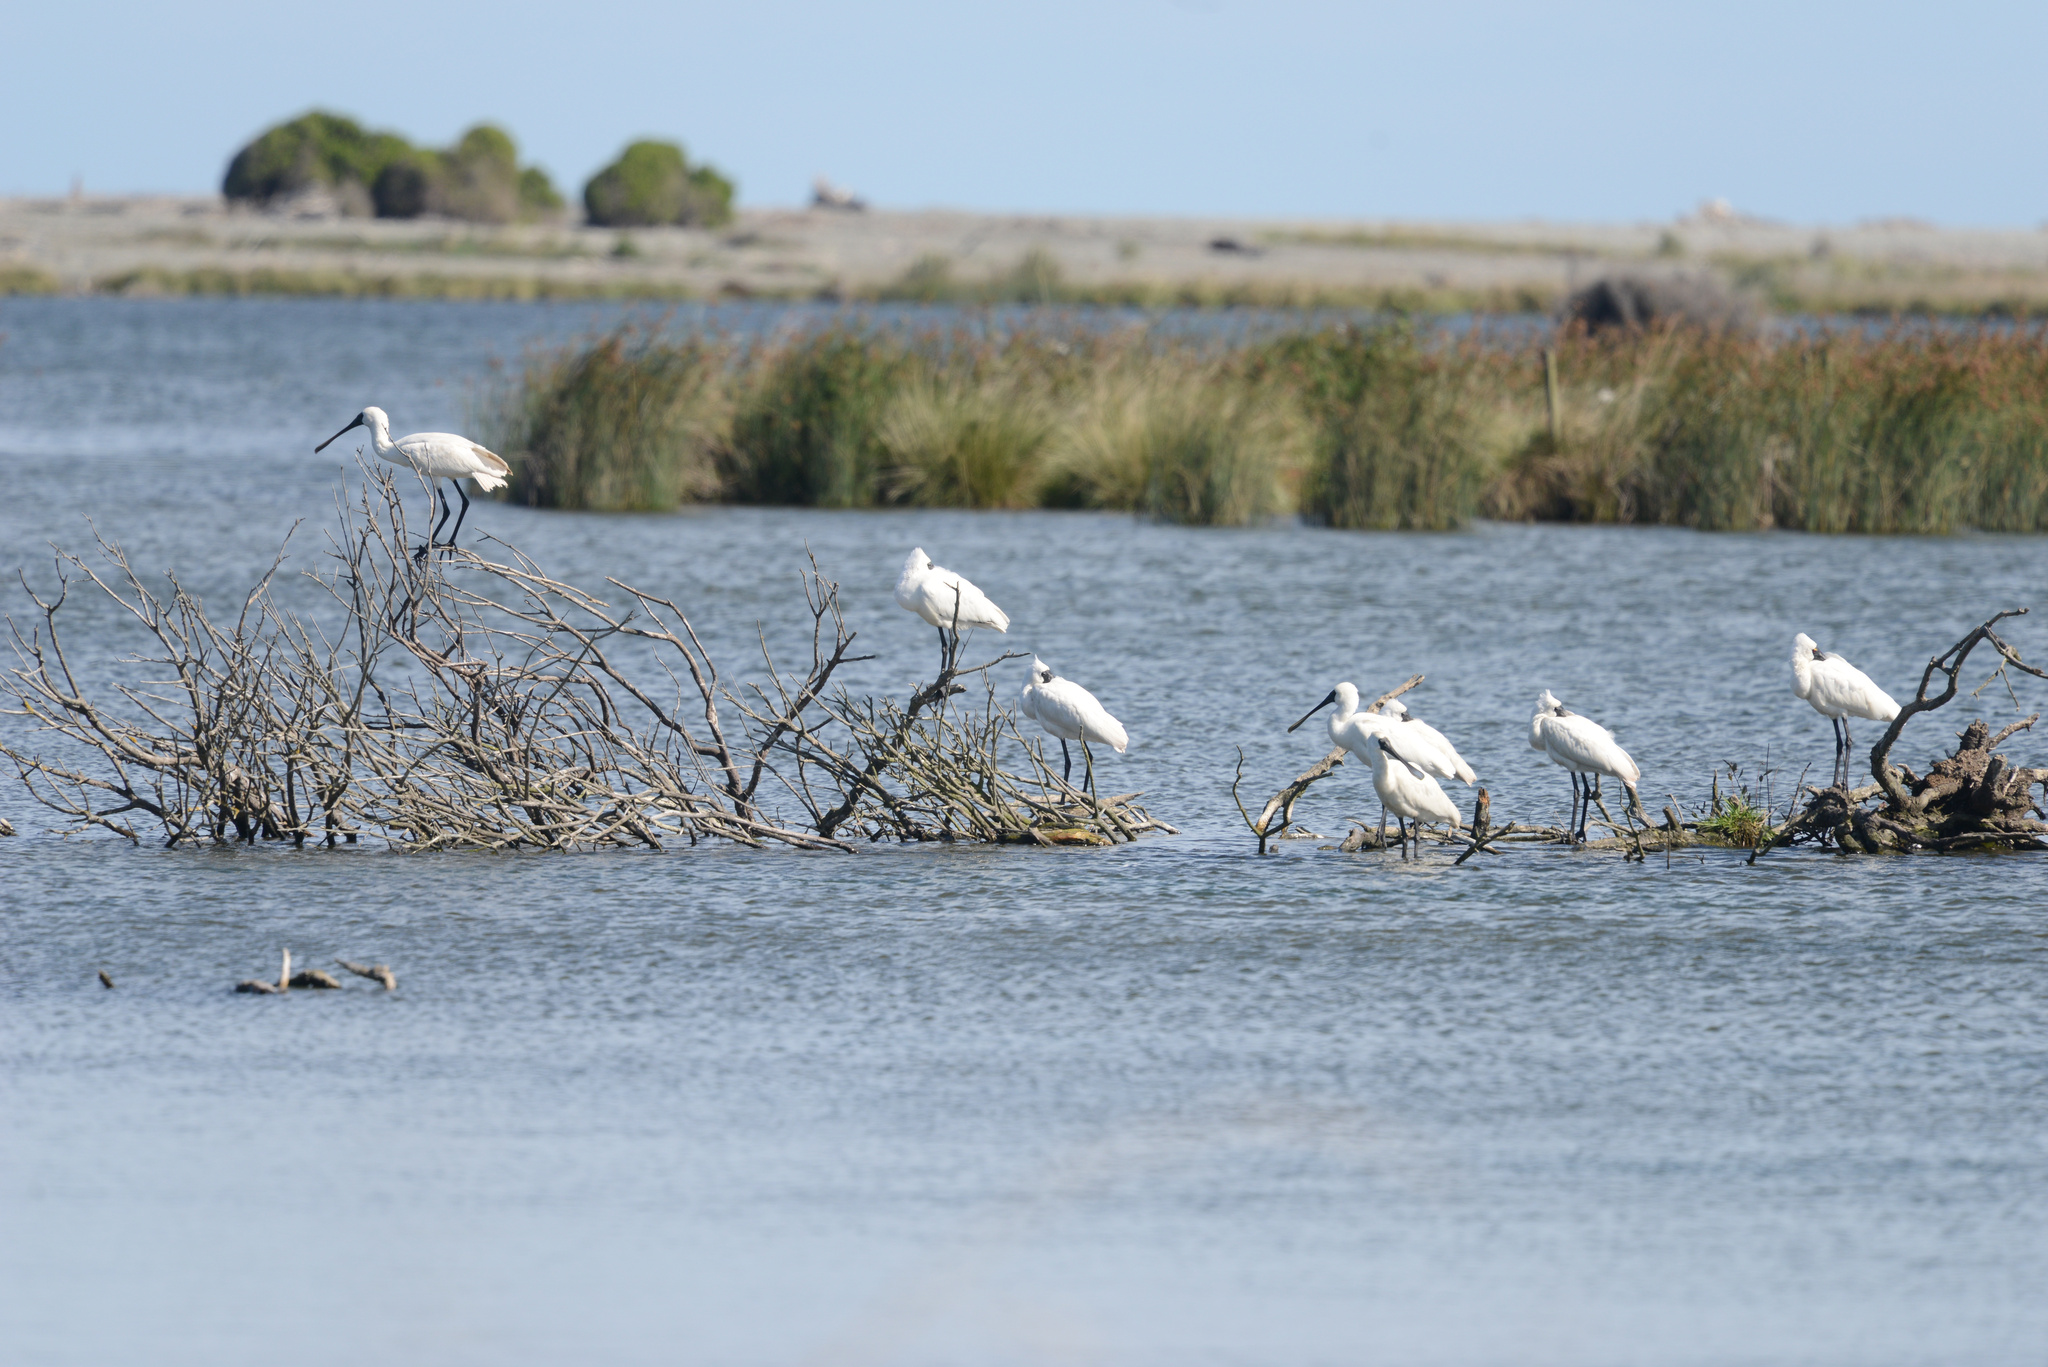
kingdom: Animalia
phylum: Chordata
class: Aves
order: Pelecaniformes
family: Threskiornithidae
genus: Platalea
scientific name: Platalea regia
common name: Royal spoonbill
